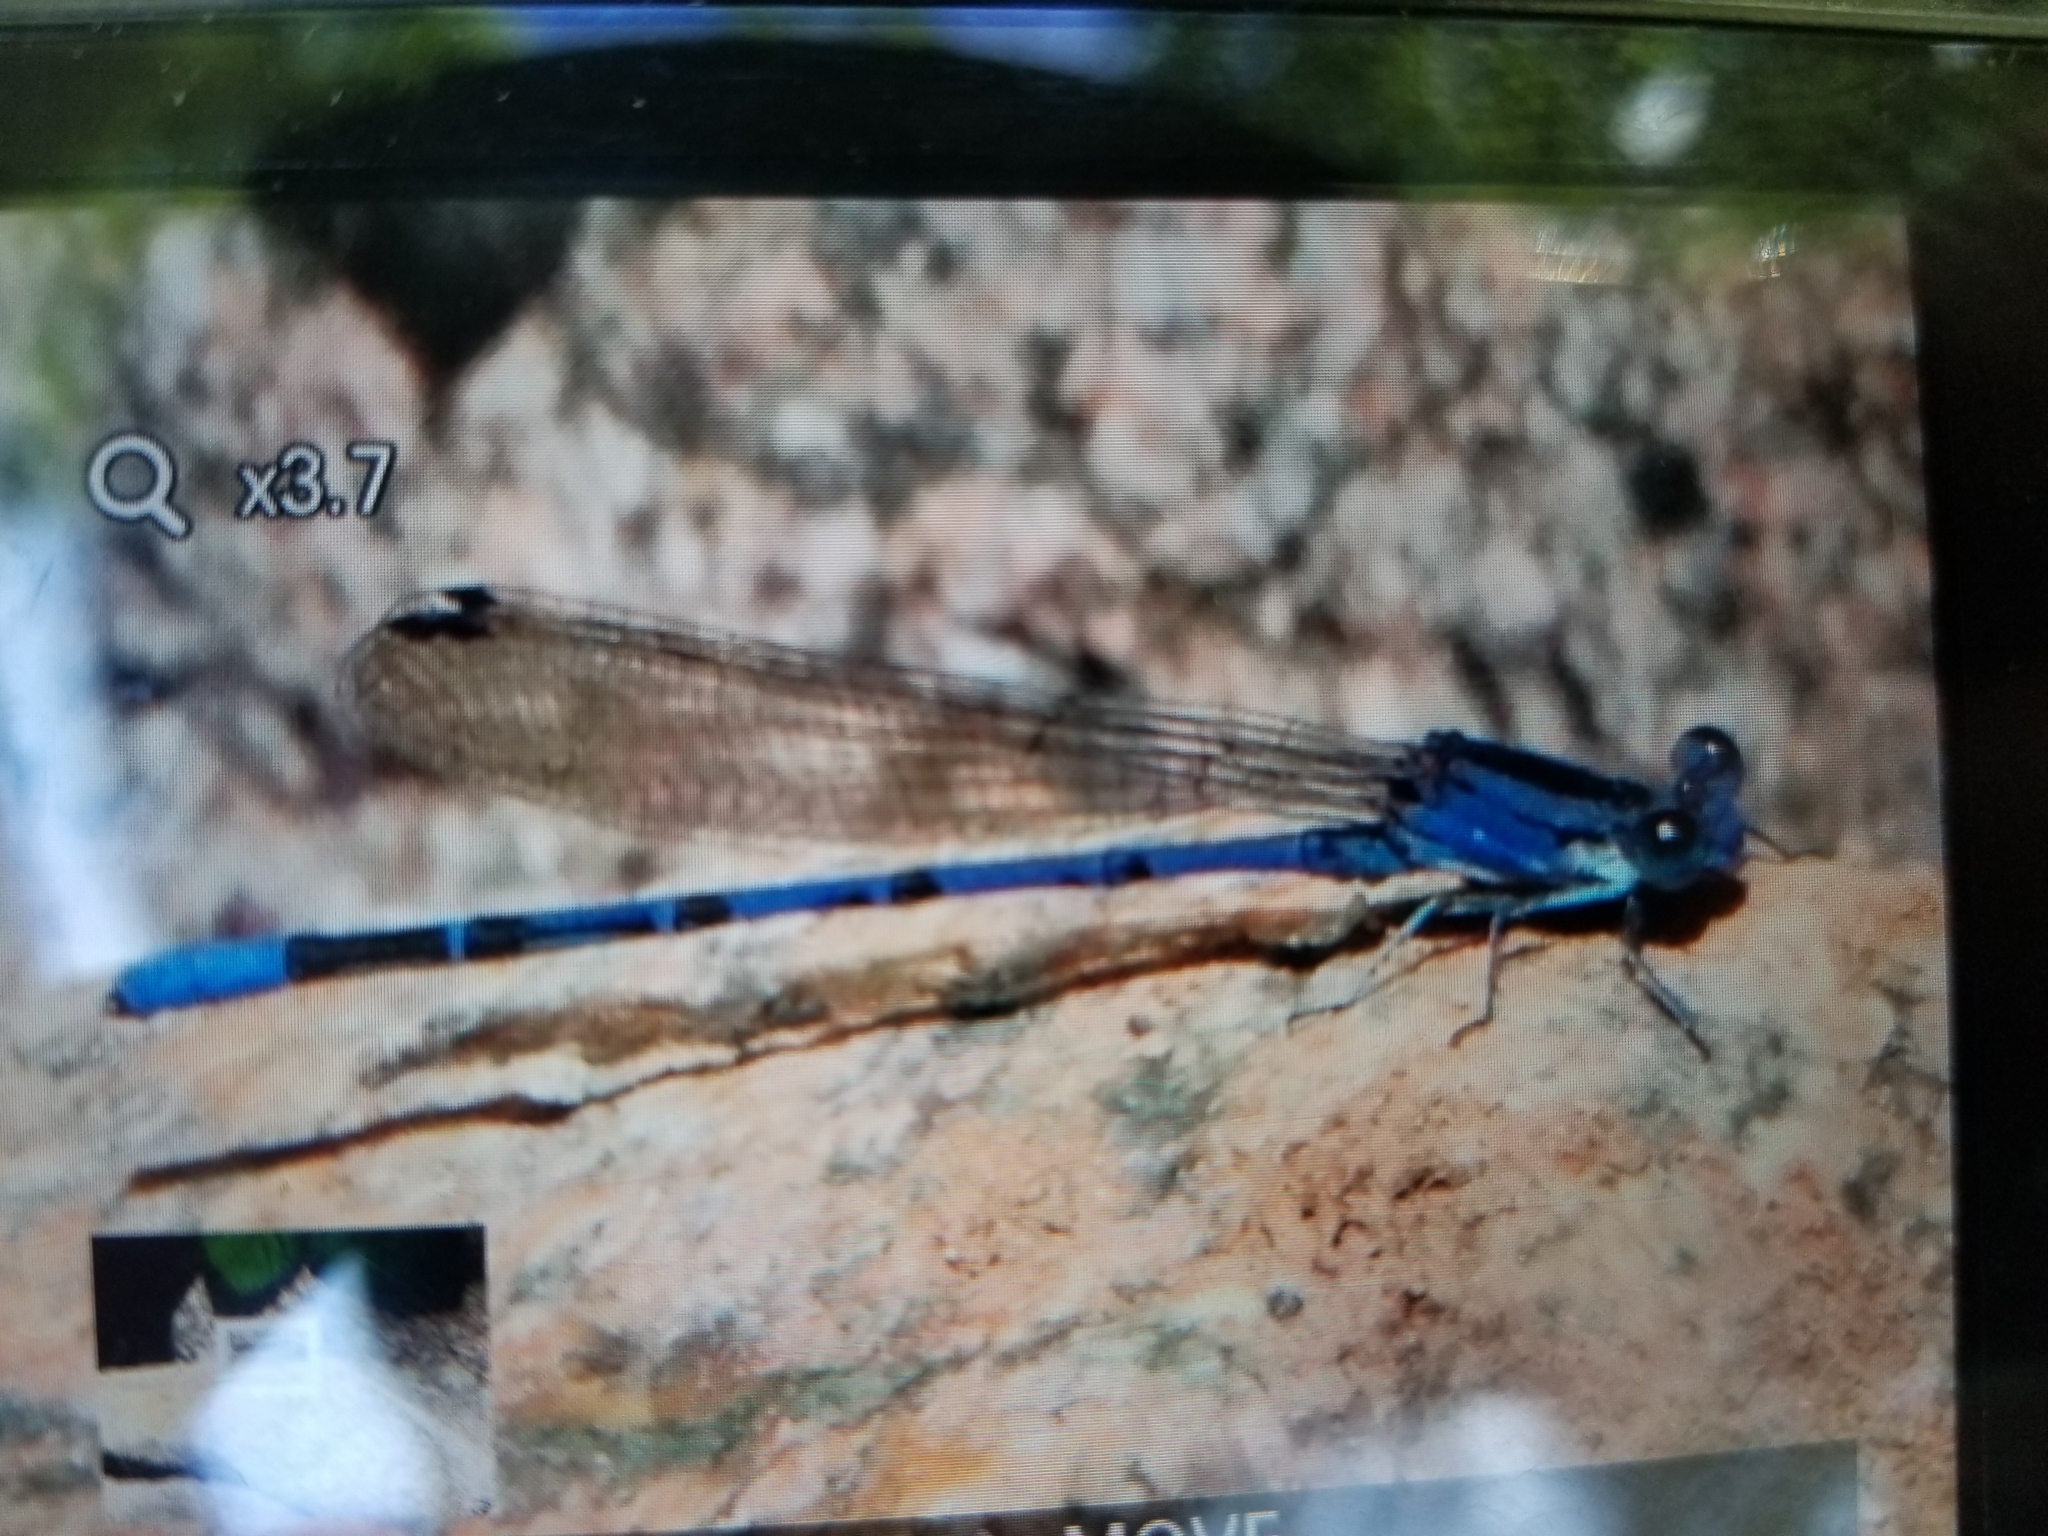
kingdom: Animalia
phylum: Arthropoda
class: Insecta
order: Odonata
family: Coenagrionidae
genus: Argia
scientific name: Argia funebris
